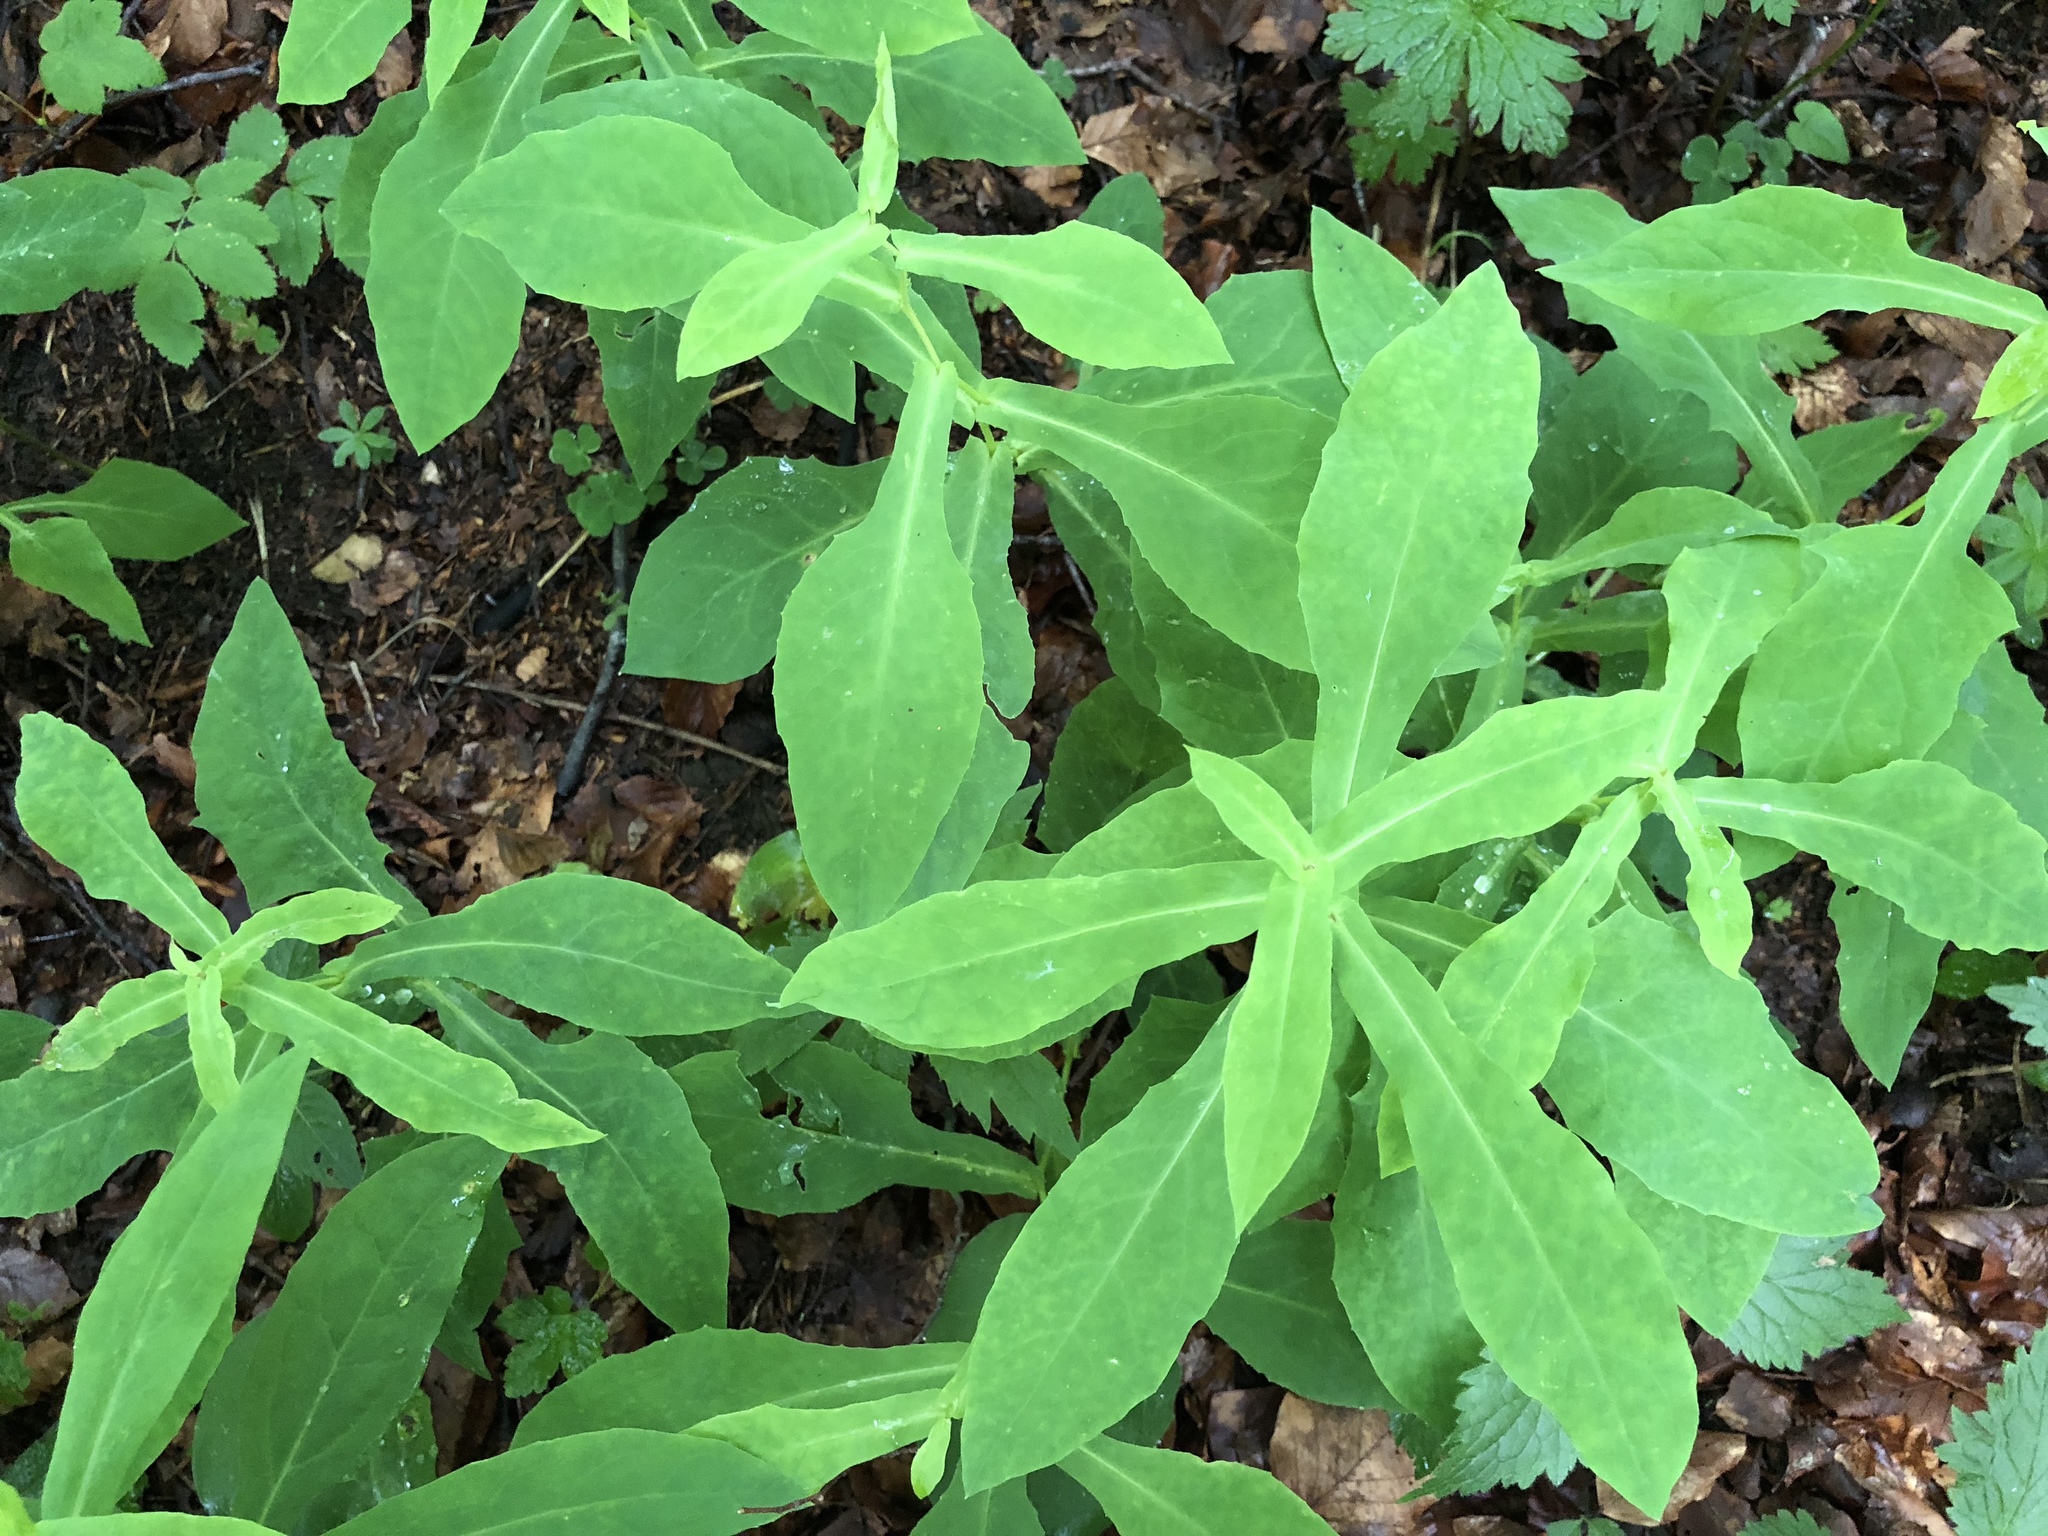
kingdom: Plantae
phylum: Tracheophyta
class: Magnoliopsida
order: Asterales
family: Asteraceae
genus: Prenanthes
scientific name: Prenanthes purpurea
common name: Purple lettuce
